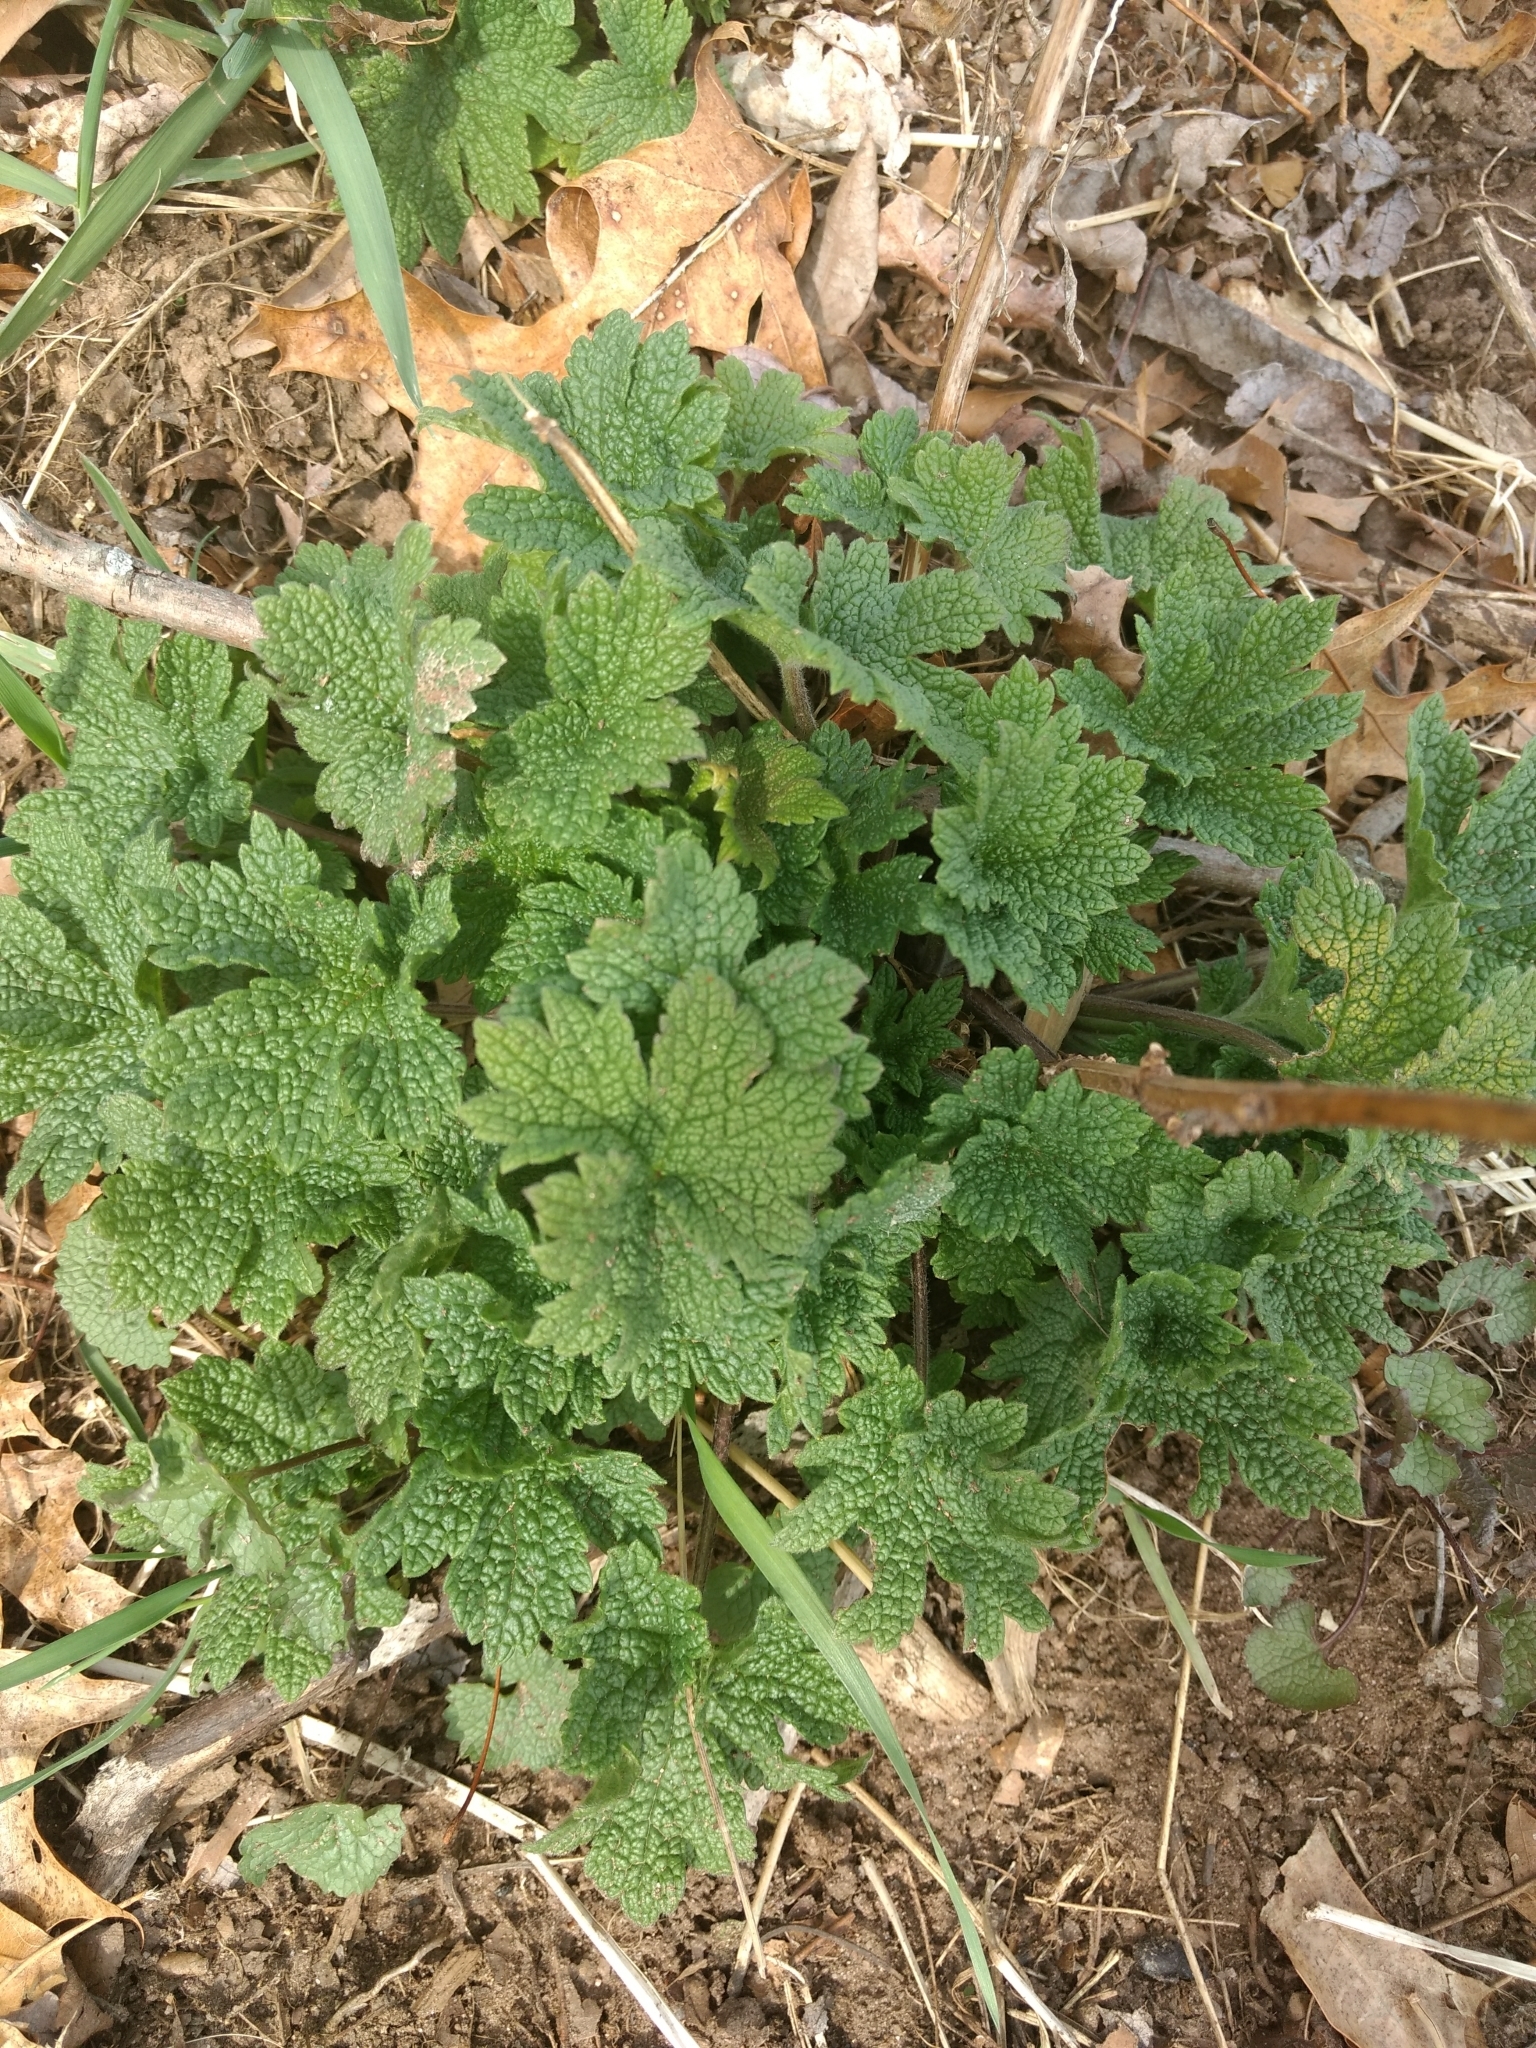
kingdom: Plantae
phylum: Tracheophyta
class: Magnoliopsida
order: Lamiales
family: Lamiaceae
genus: Leonurus
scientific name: Leonurus cardiaca
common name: Motherwort
